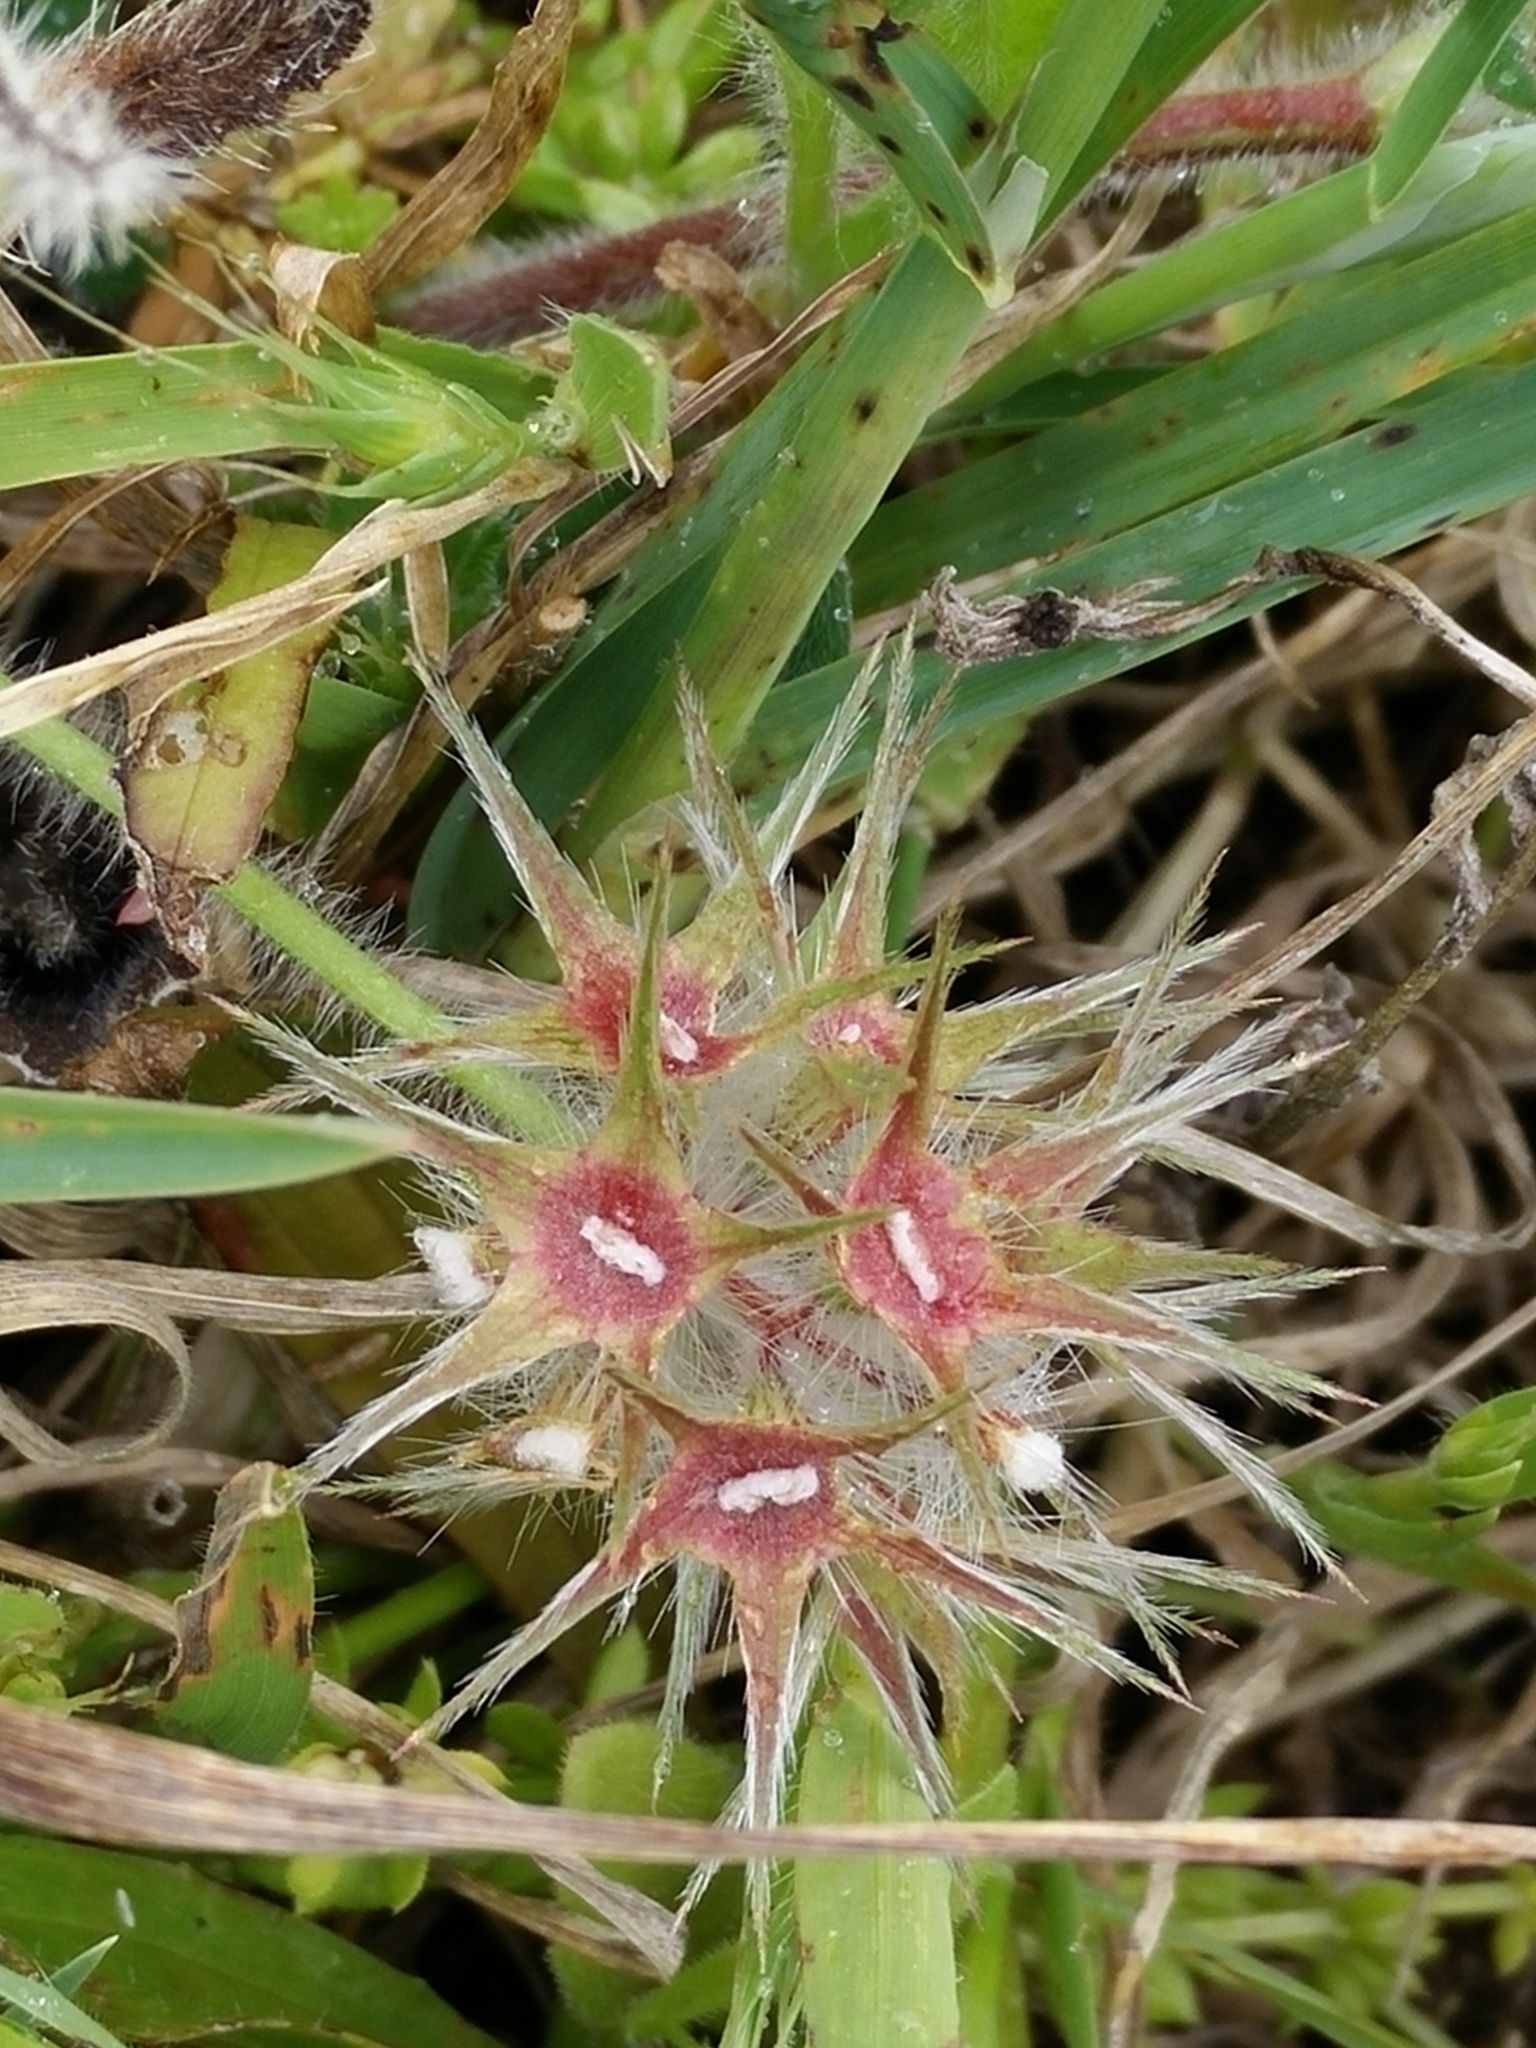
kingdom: Plantae
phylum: Tracheophyta
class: Magnoliopsida
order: Fabales
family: Fabaceae
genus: Trifolium
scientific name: Trifolium stellatum
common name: Starry clover
